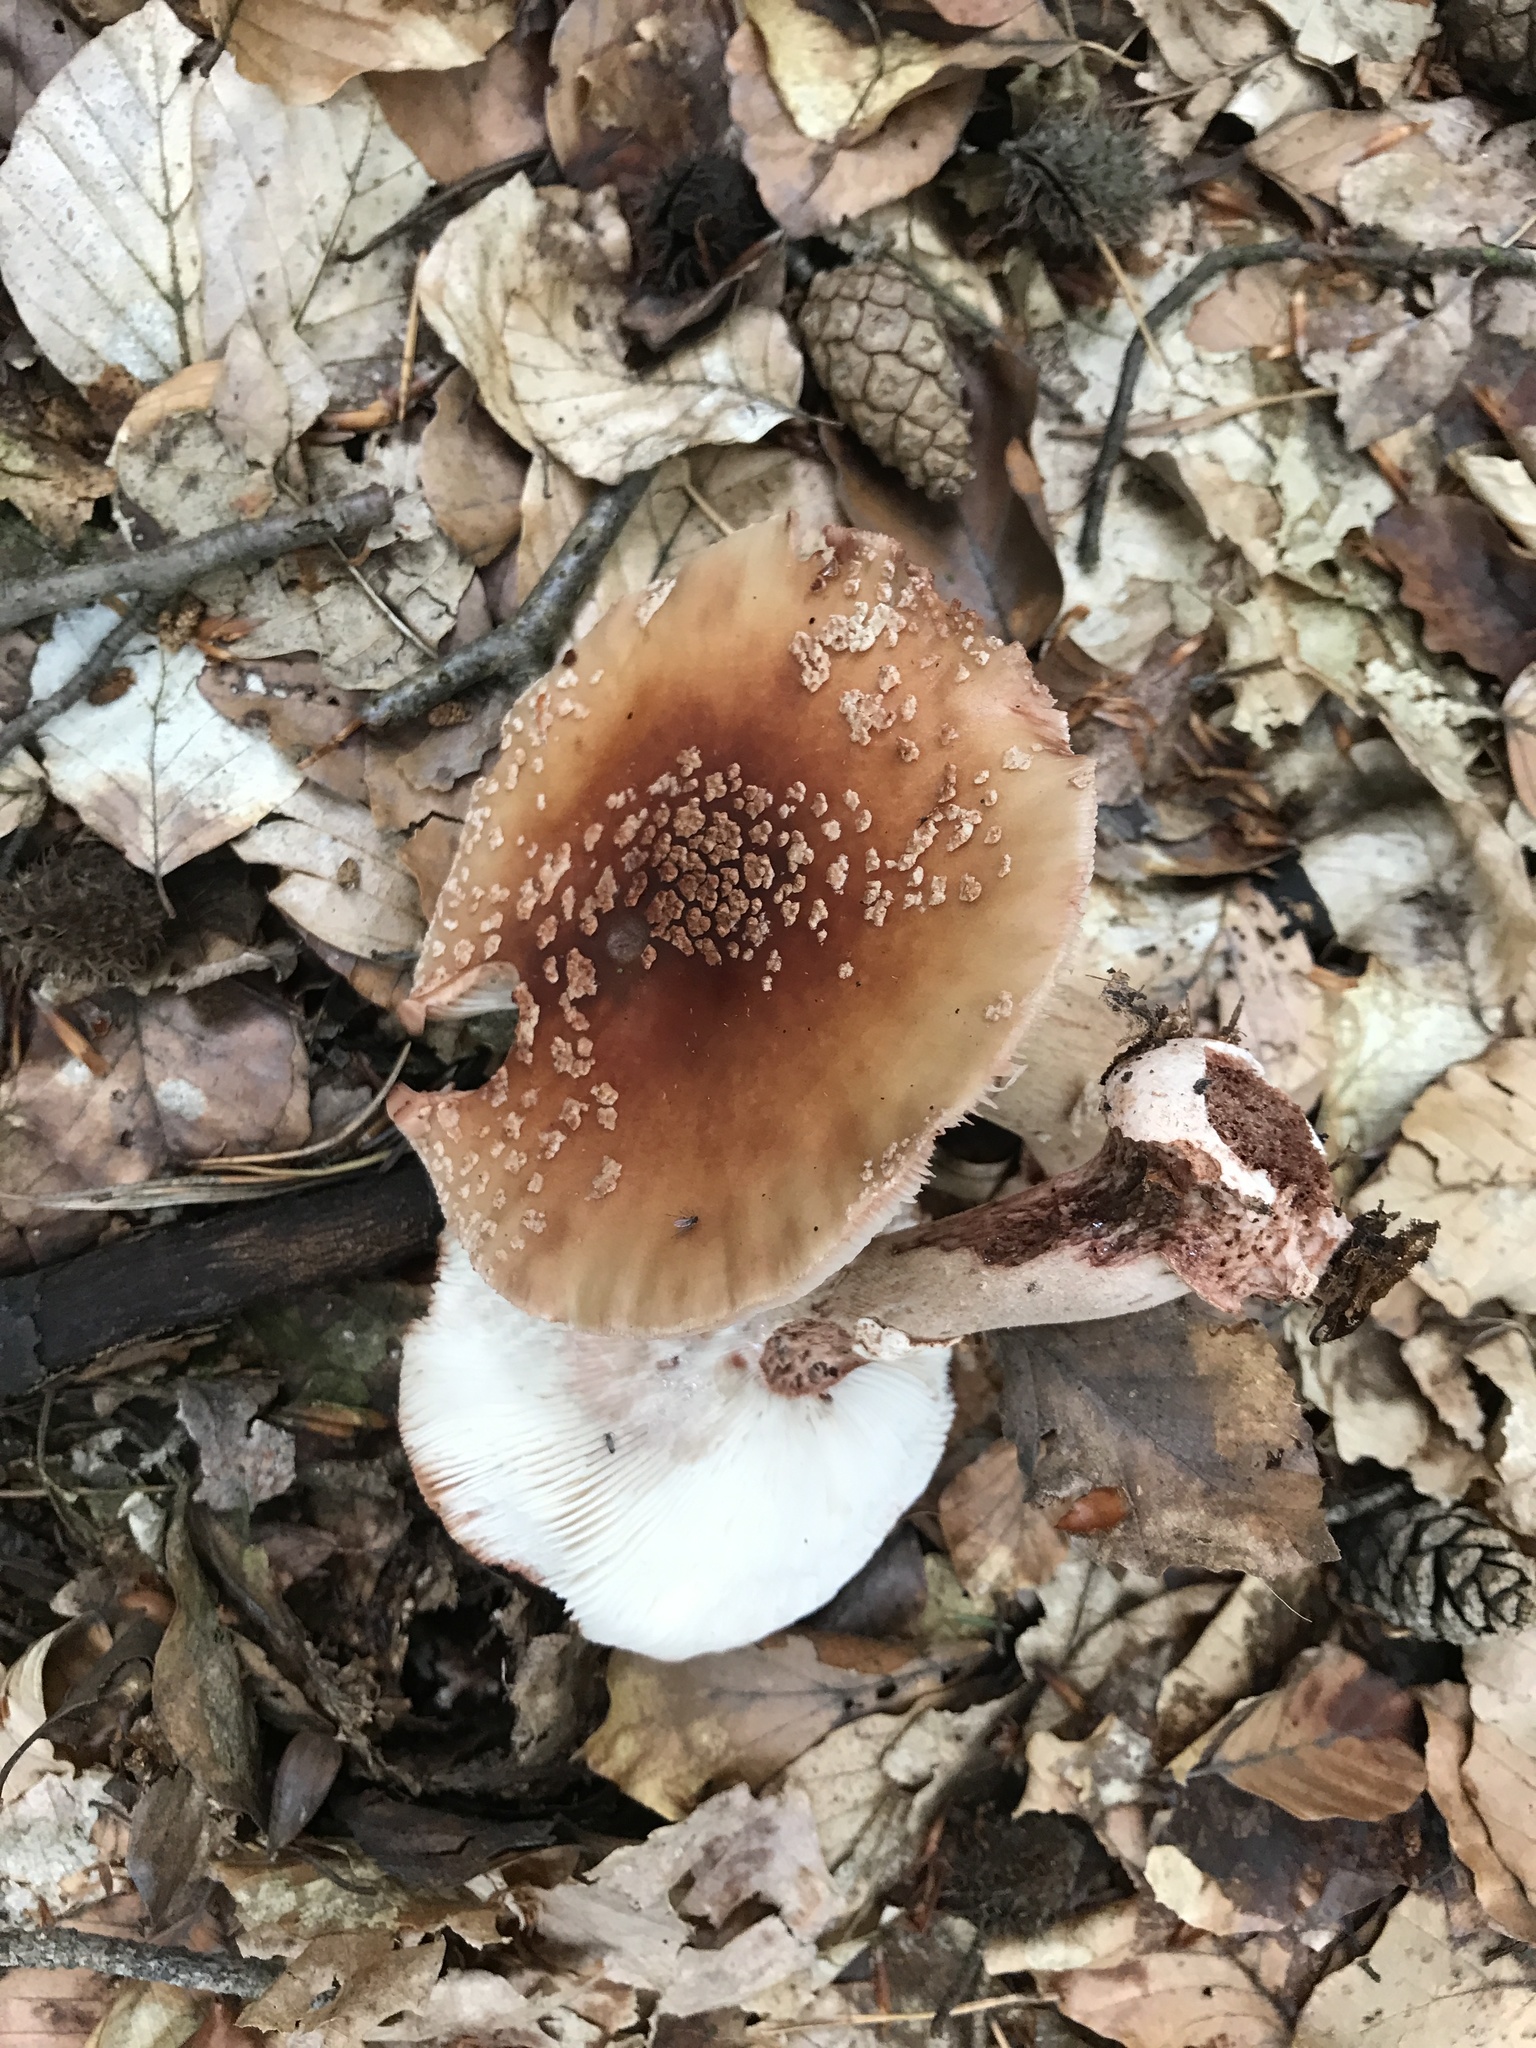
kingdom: Fungi
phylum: Basidiomycota
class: Agaricomycetes
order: Agaricales
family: Amanitaceae
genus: Amanita
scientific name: Amanita rubescens
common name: Blusher
